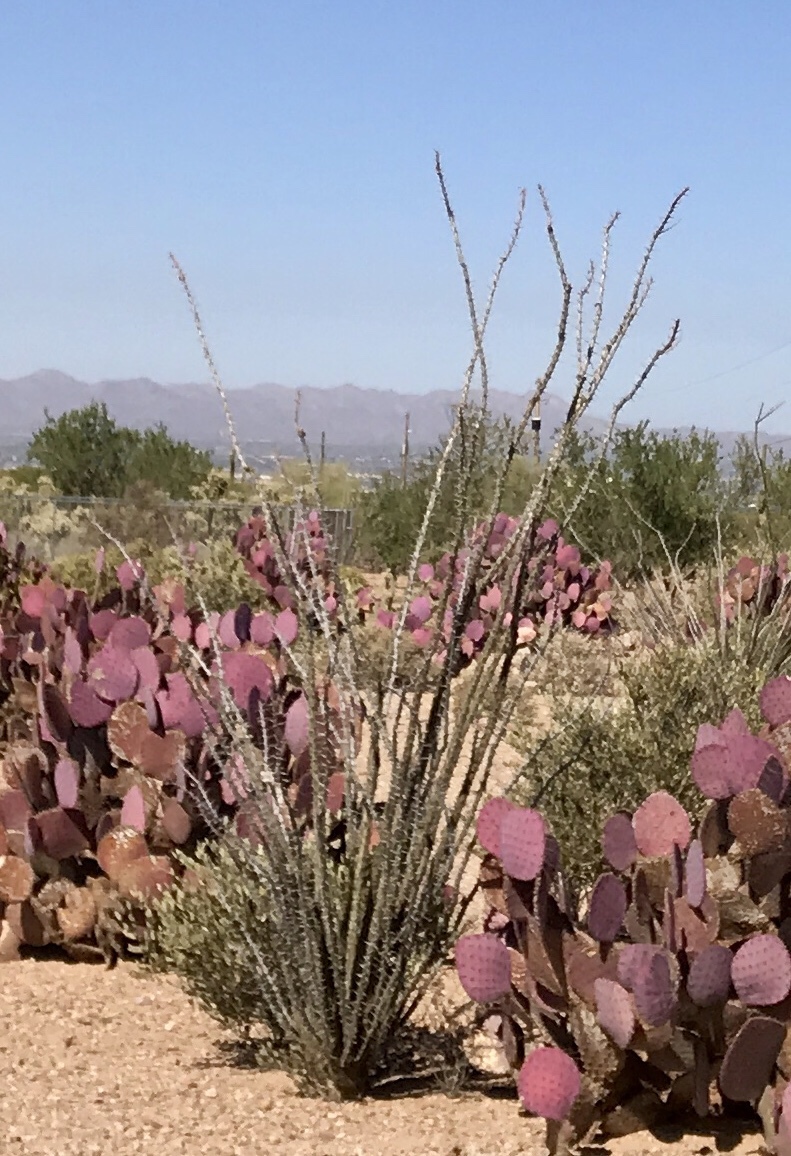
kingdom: Plantae
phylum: Tracheophyta
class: Magnoliopsida
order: Ericales
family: Fouquieriaceae
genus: Fouquieria
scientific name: Fouquieria splendens
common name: Vine-cactus
